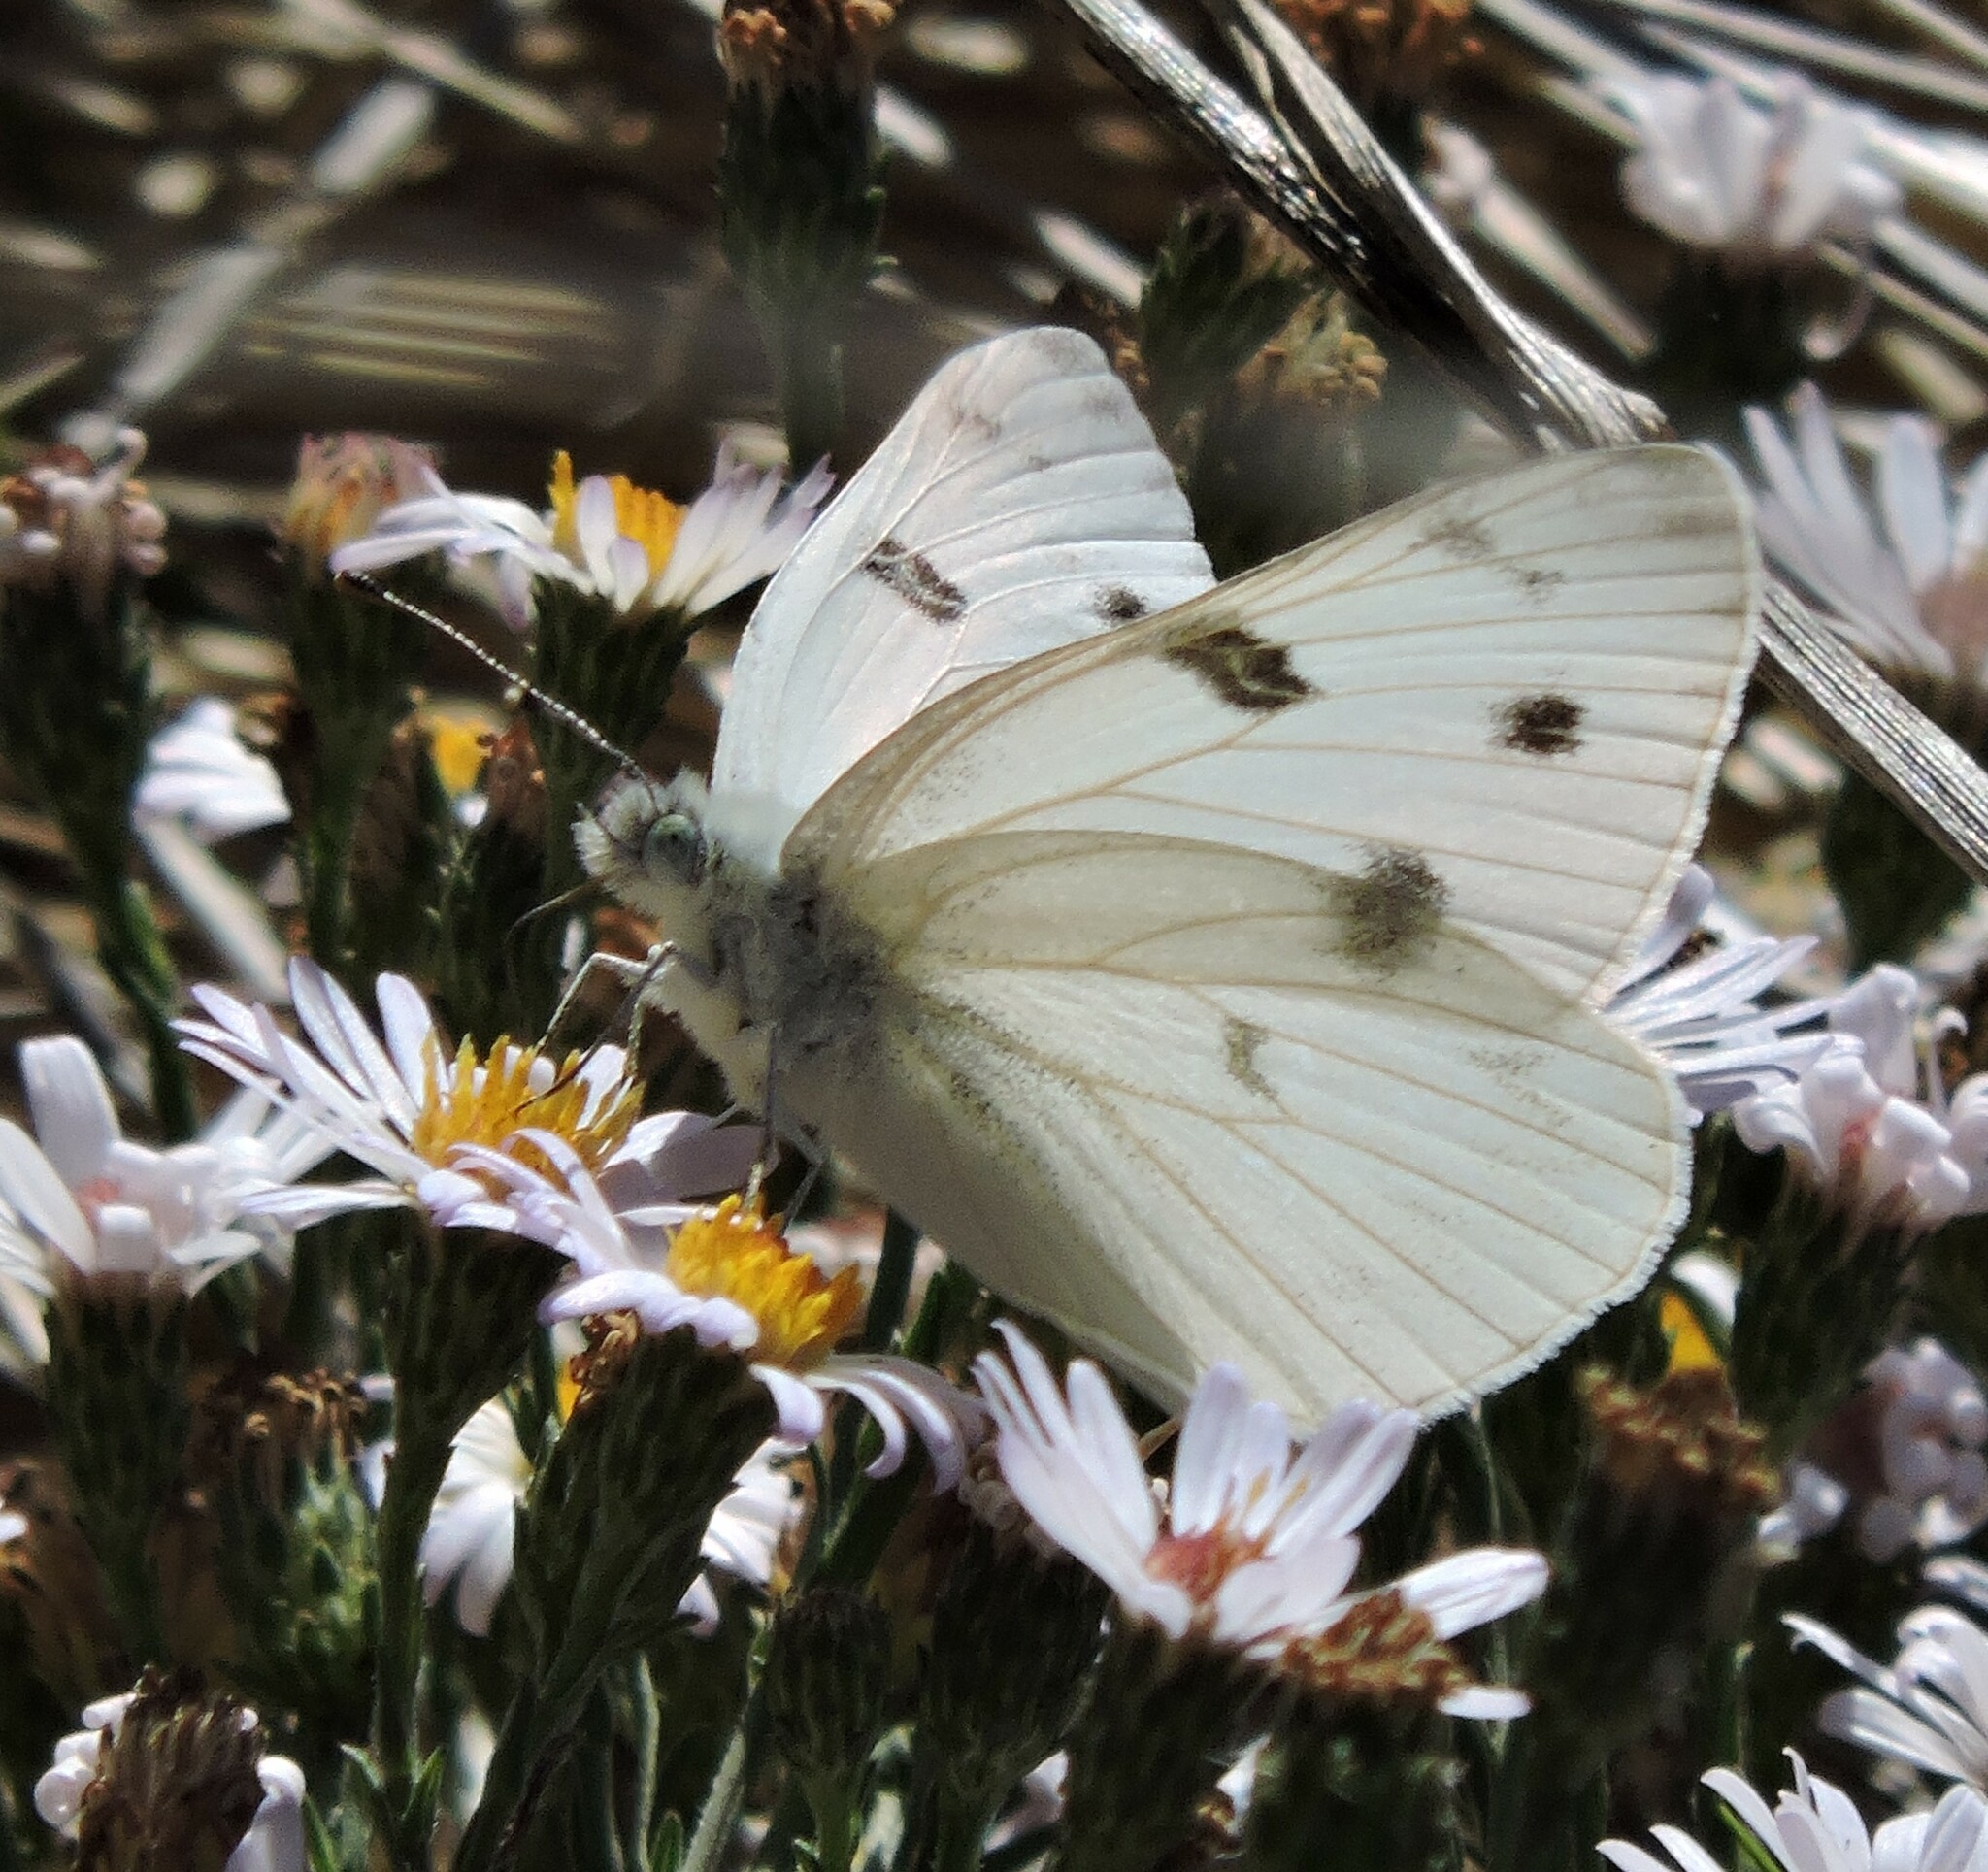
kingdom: Animalia
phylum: Arthropoda
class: Insecta
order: Lepidoptera
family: Pieridae
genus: Pontia
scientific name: Pontia protodice
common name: Checkered white
